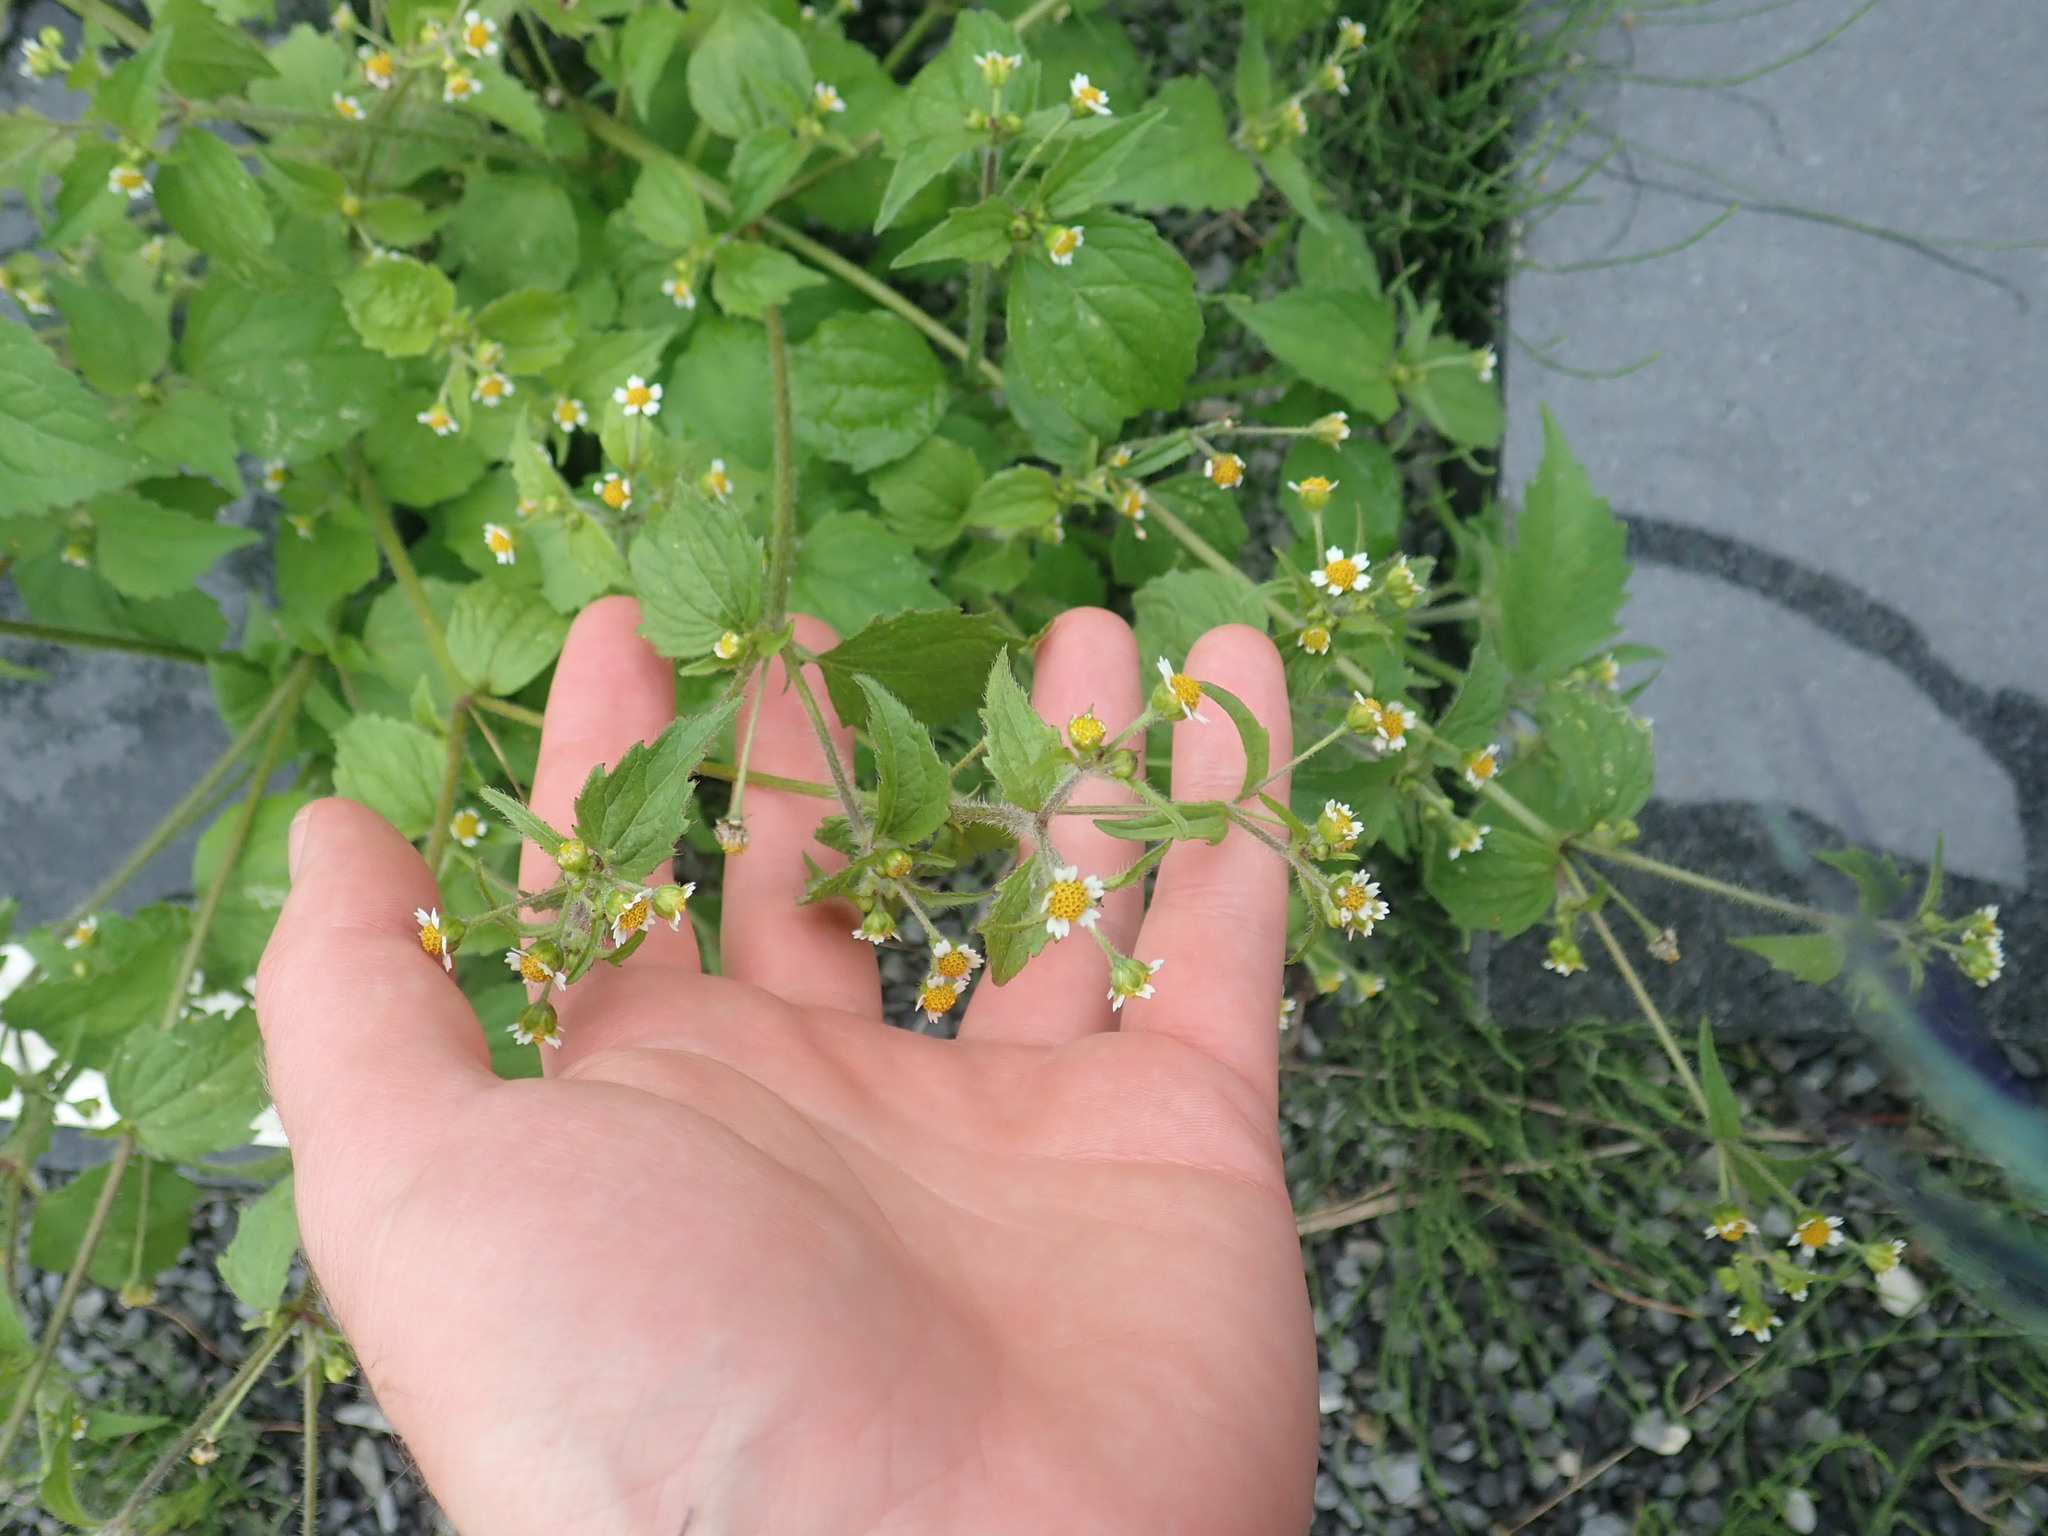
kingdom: Plantae
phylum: Tracheophyta
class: Magnoliopsida
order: Asterales
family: Asteraceae
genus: Galinsoga
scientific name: Galinsoga quadriradiata
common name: Shaggy soldier
